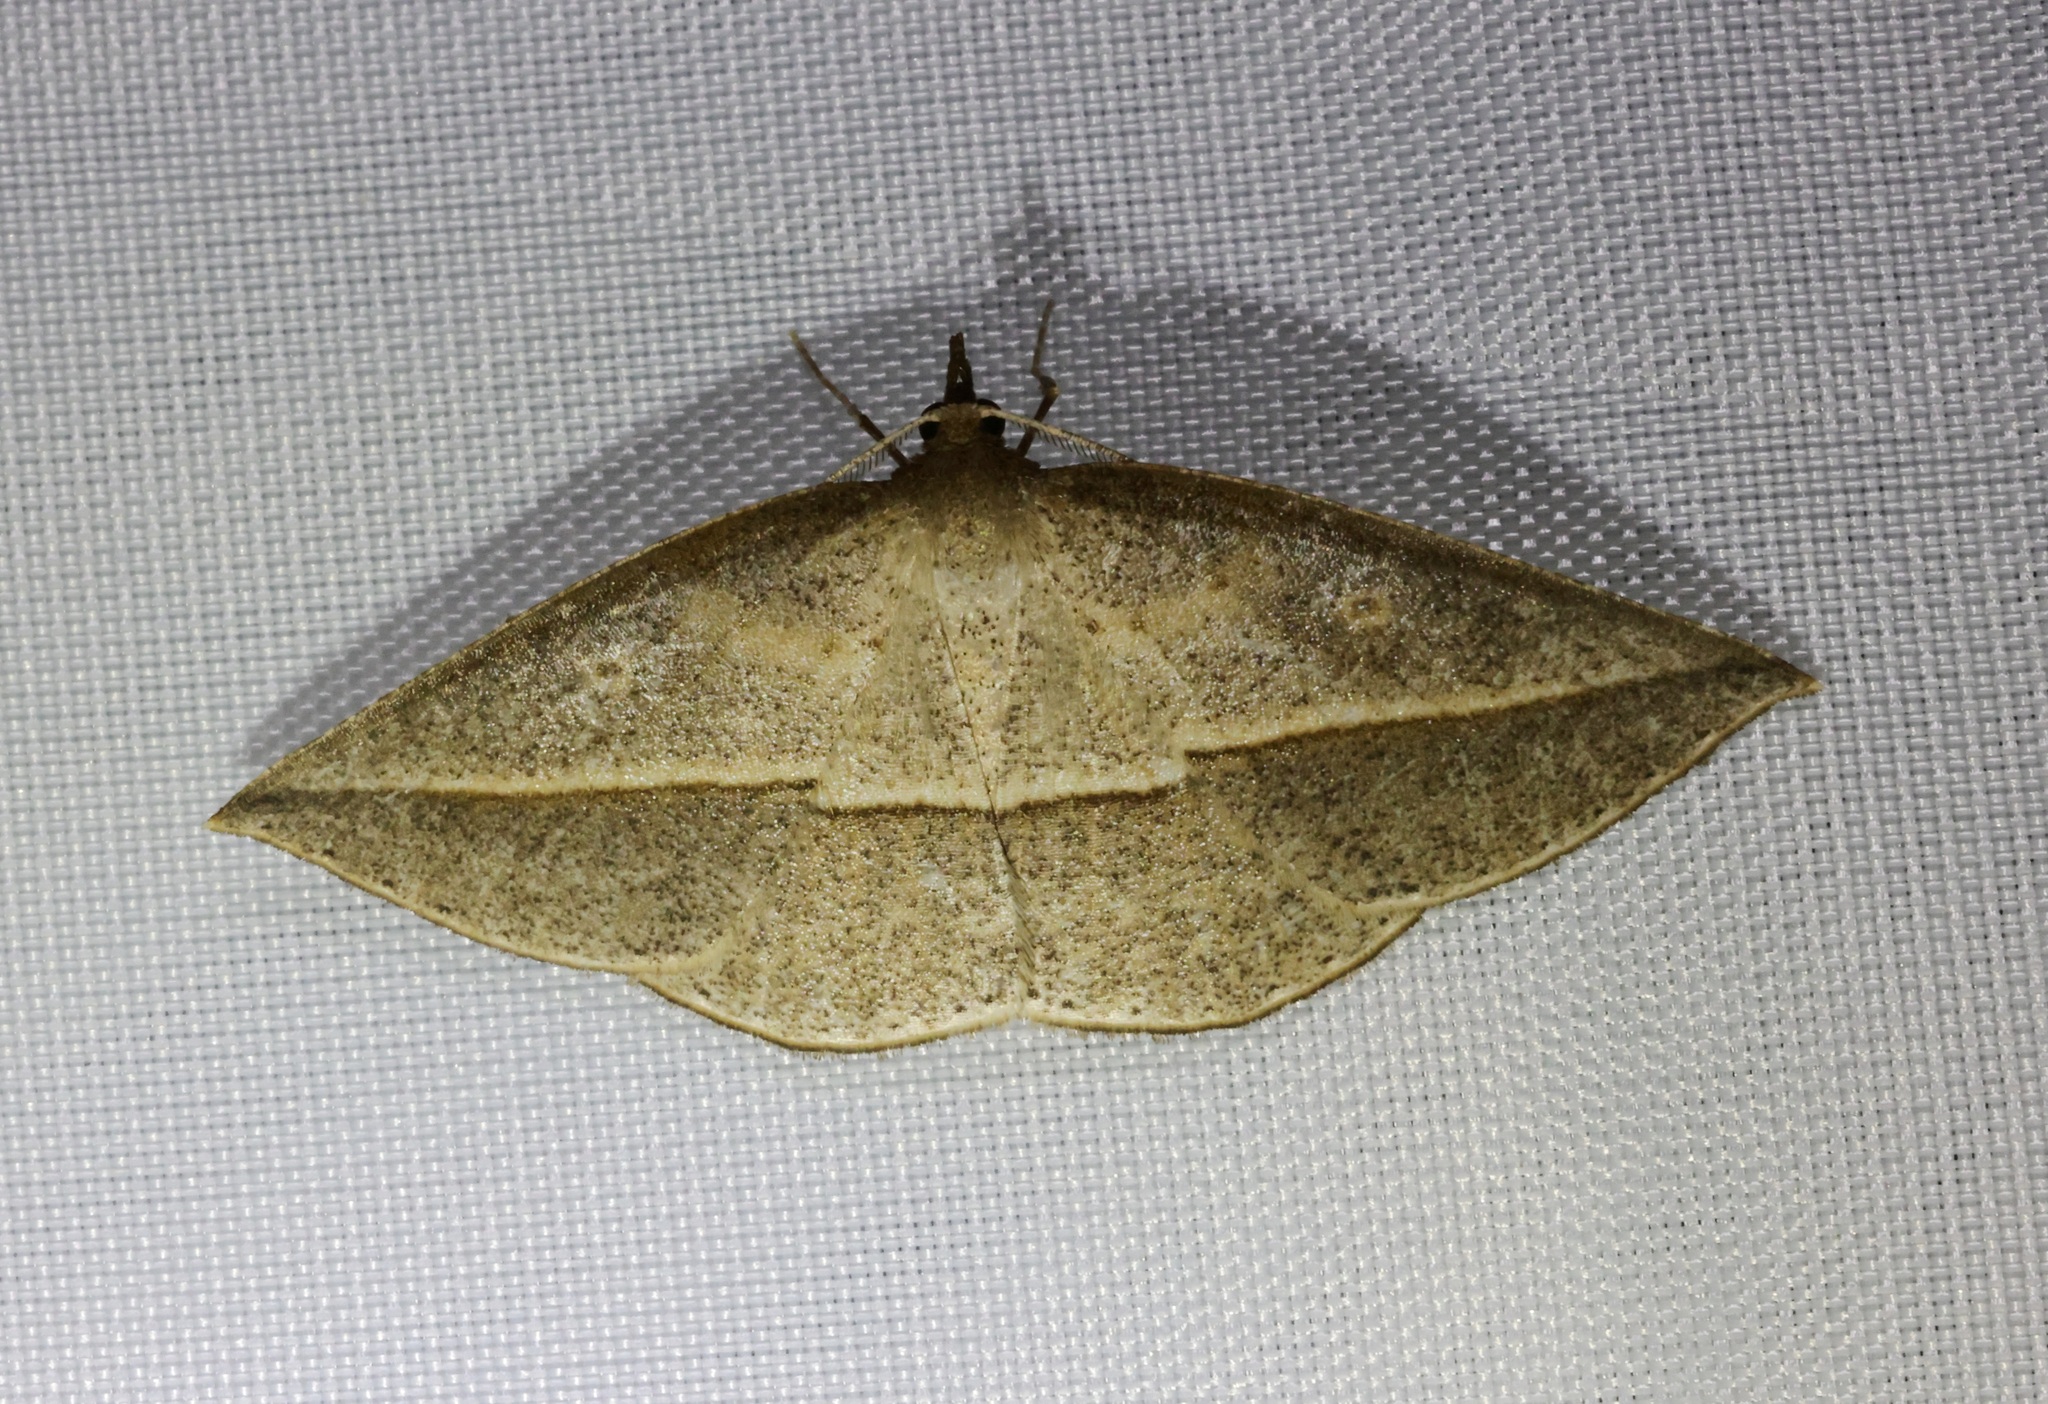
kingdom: Animalia
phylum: Arthropoda
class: Insecta
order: Lepidoptera
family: Geometridae
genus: Heteralex
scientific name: Heteralex unilinea
